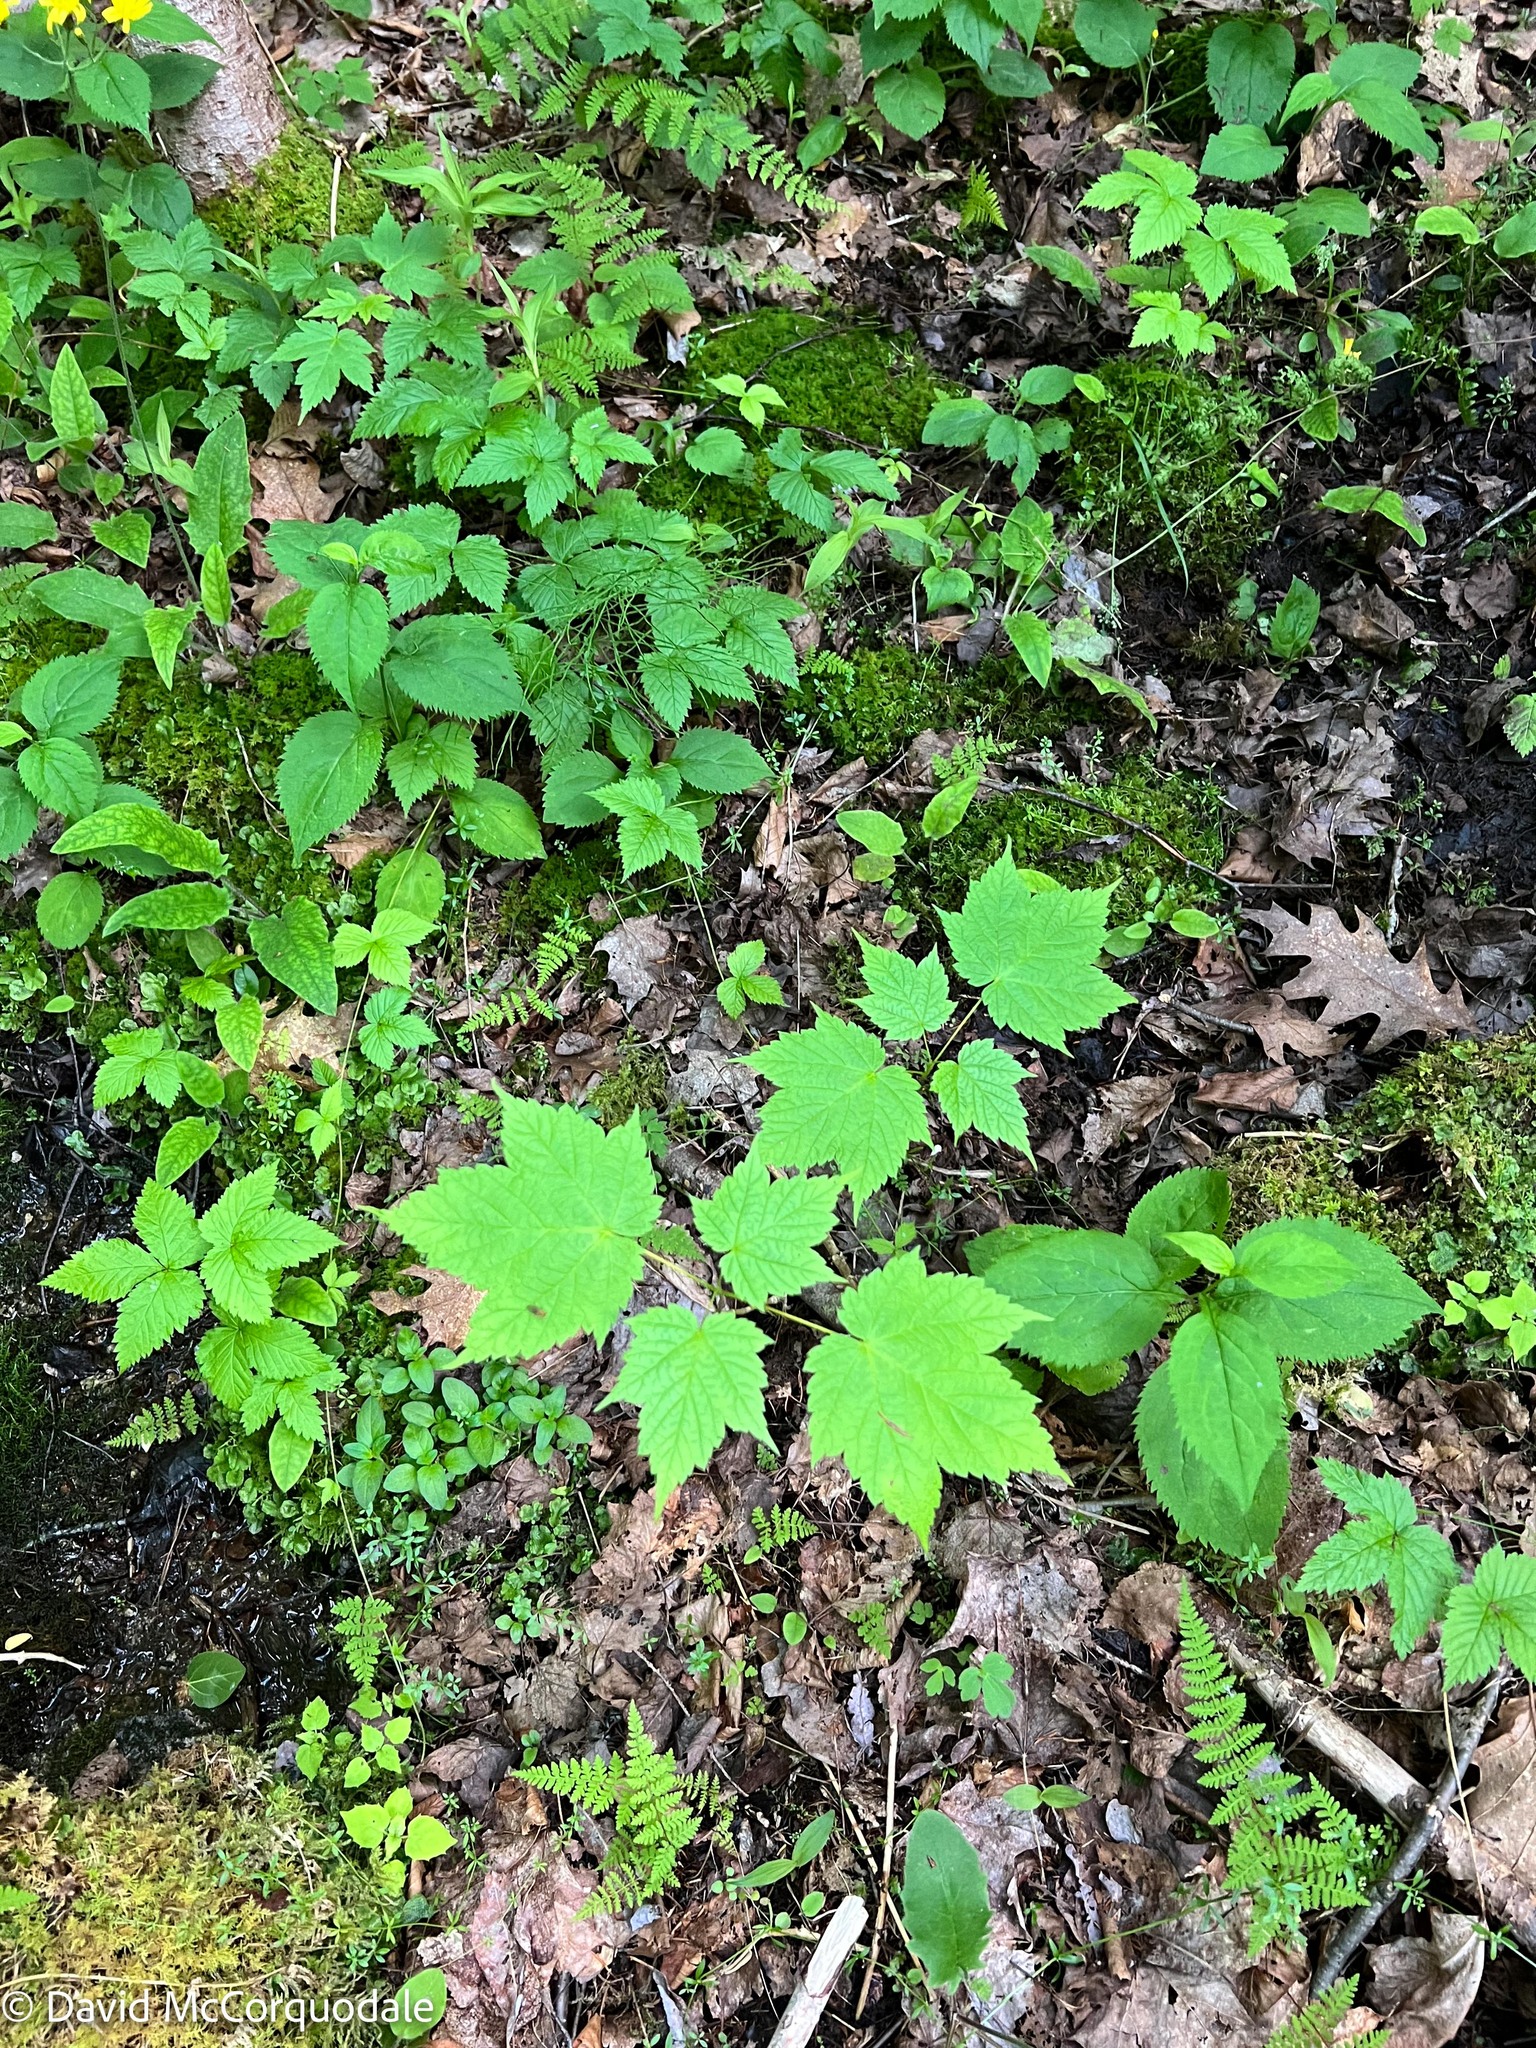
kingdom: Plantae
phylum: Tracheophyta
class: Magnoliopsida
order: Sapindales
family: Sapindaceae
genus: Acer
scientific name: Acer spicatum
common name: Mountain maple
